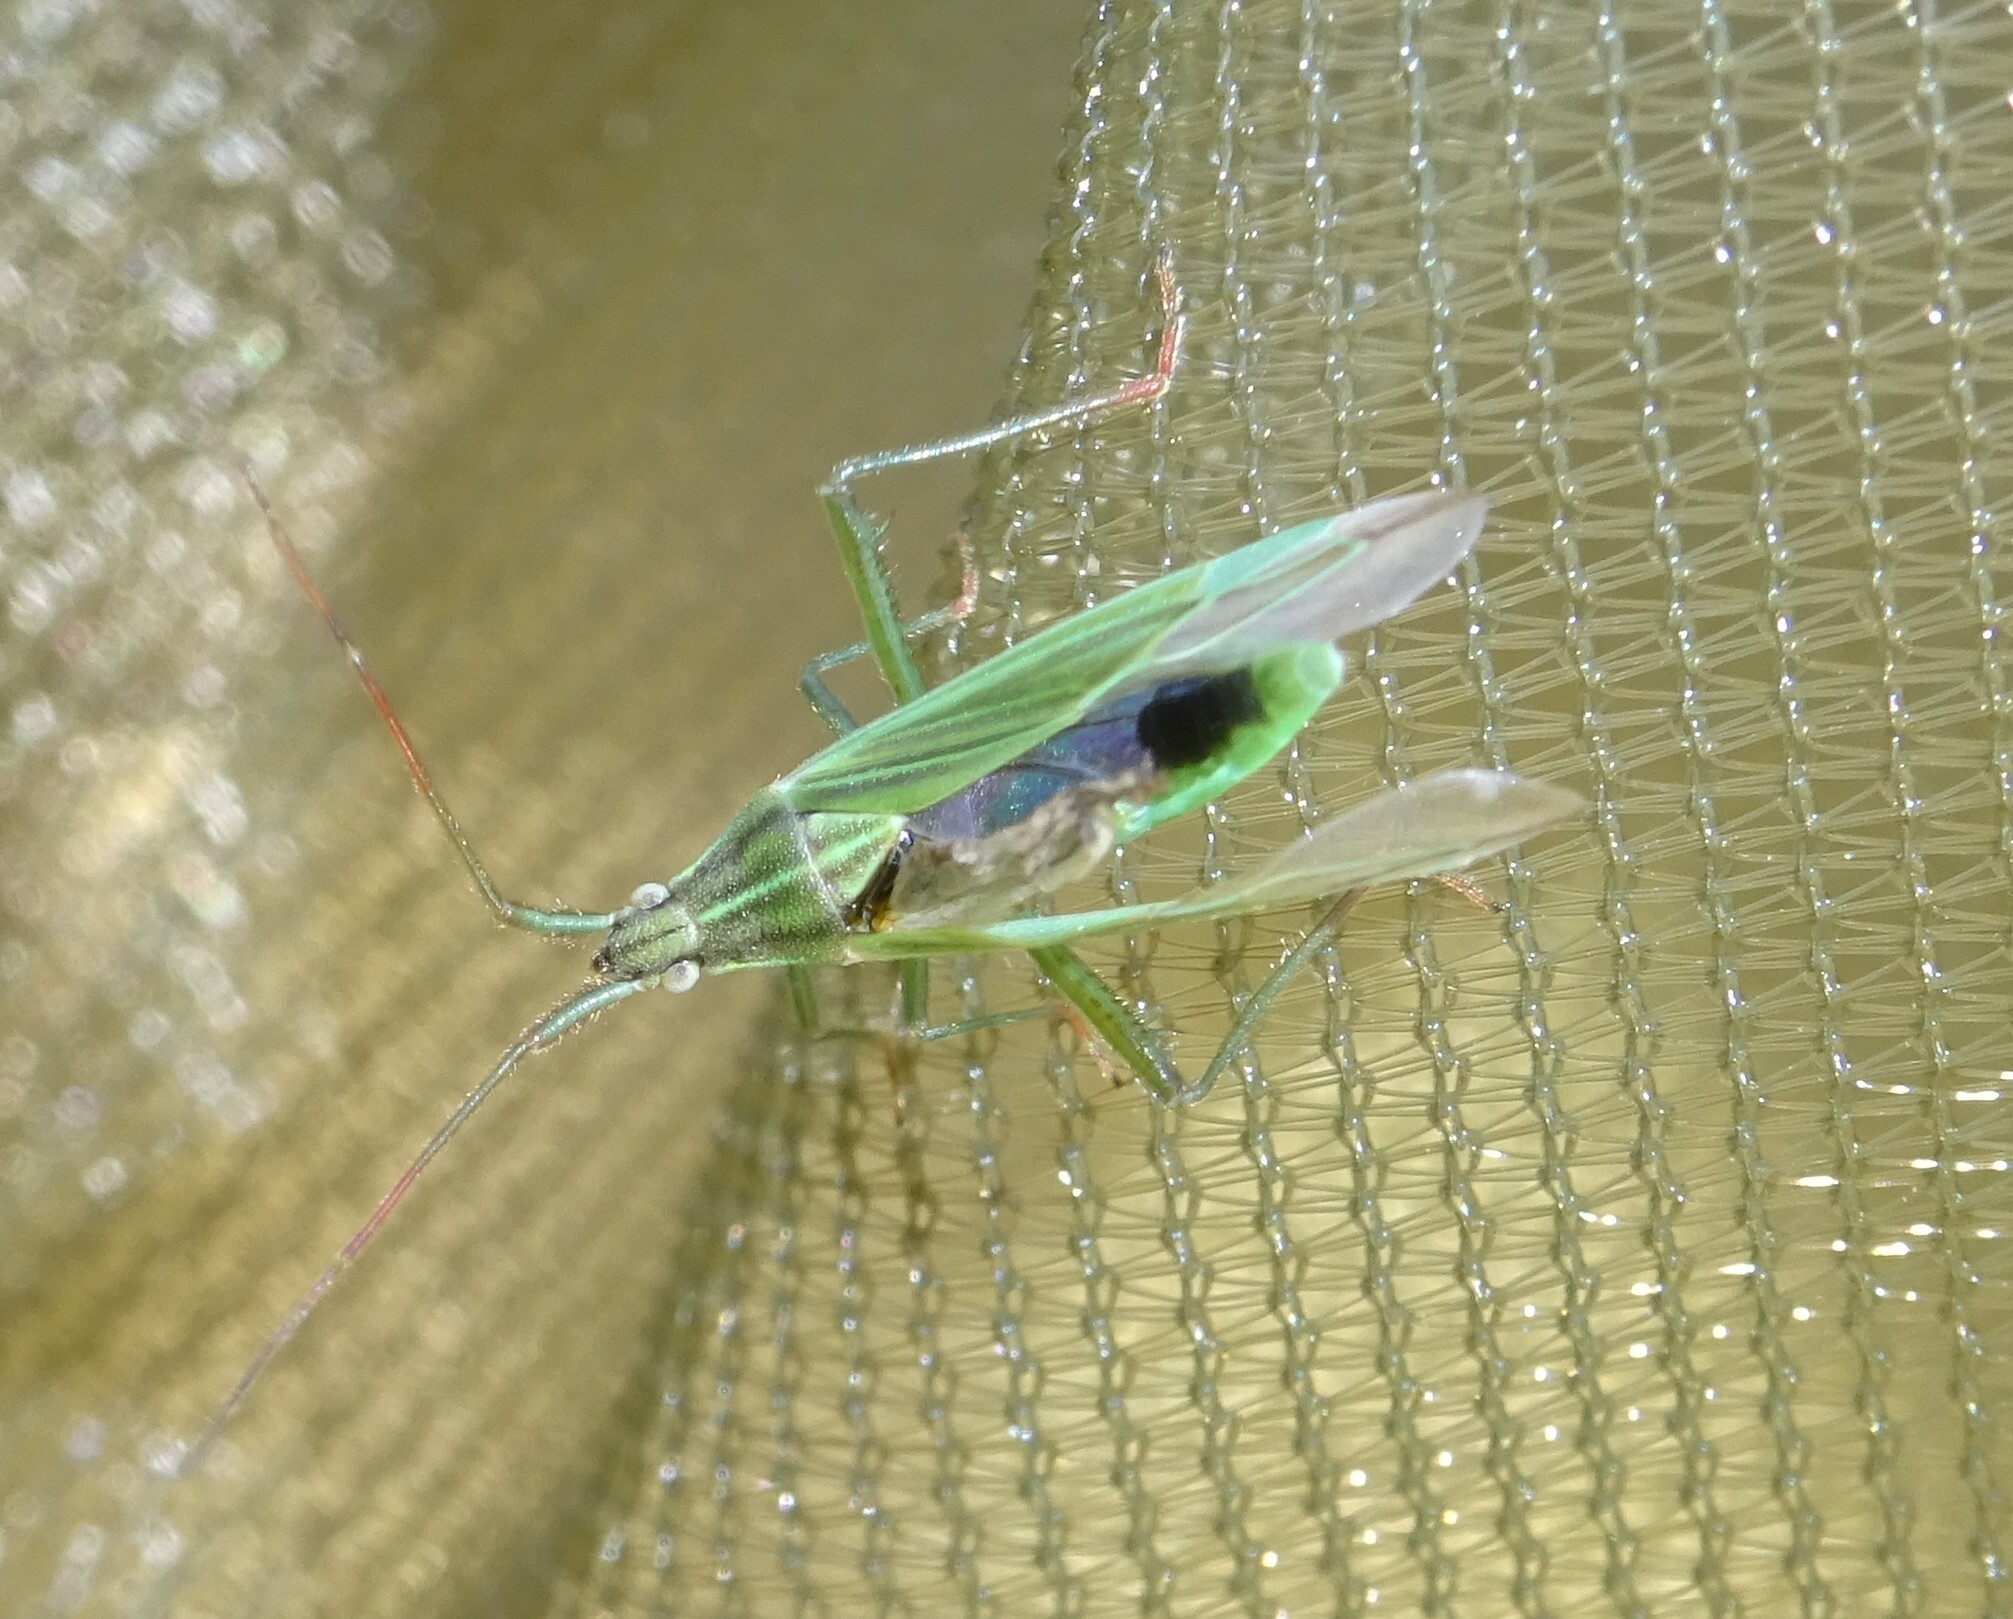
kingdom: Animalia
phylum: Arthropoda
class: Insecta
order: Hemiptera
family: Miridae
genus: Stenodema
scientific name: Stenodema calcarata
